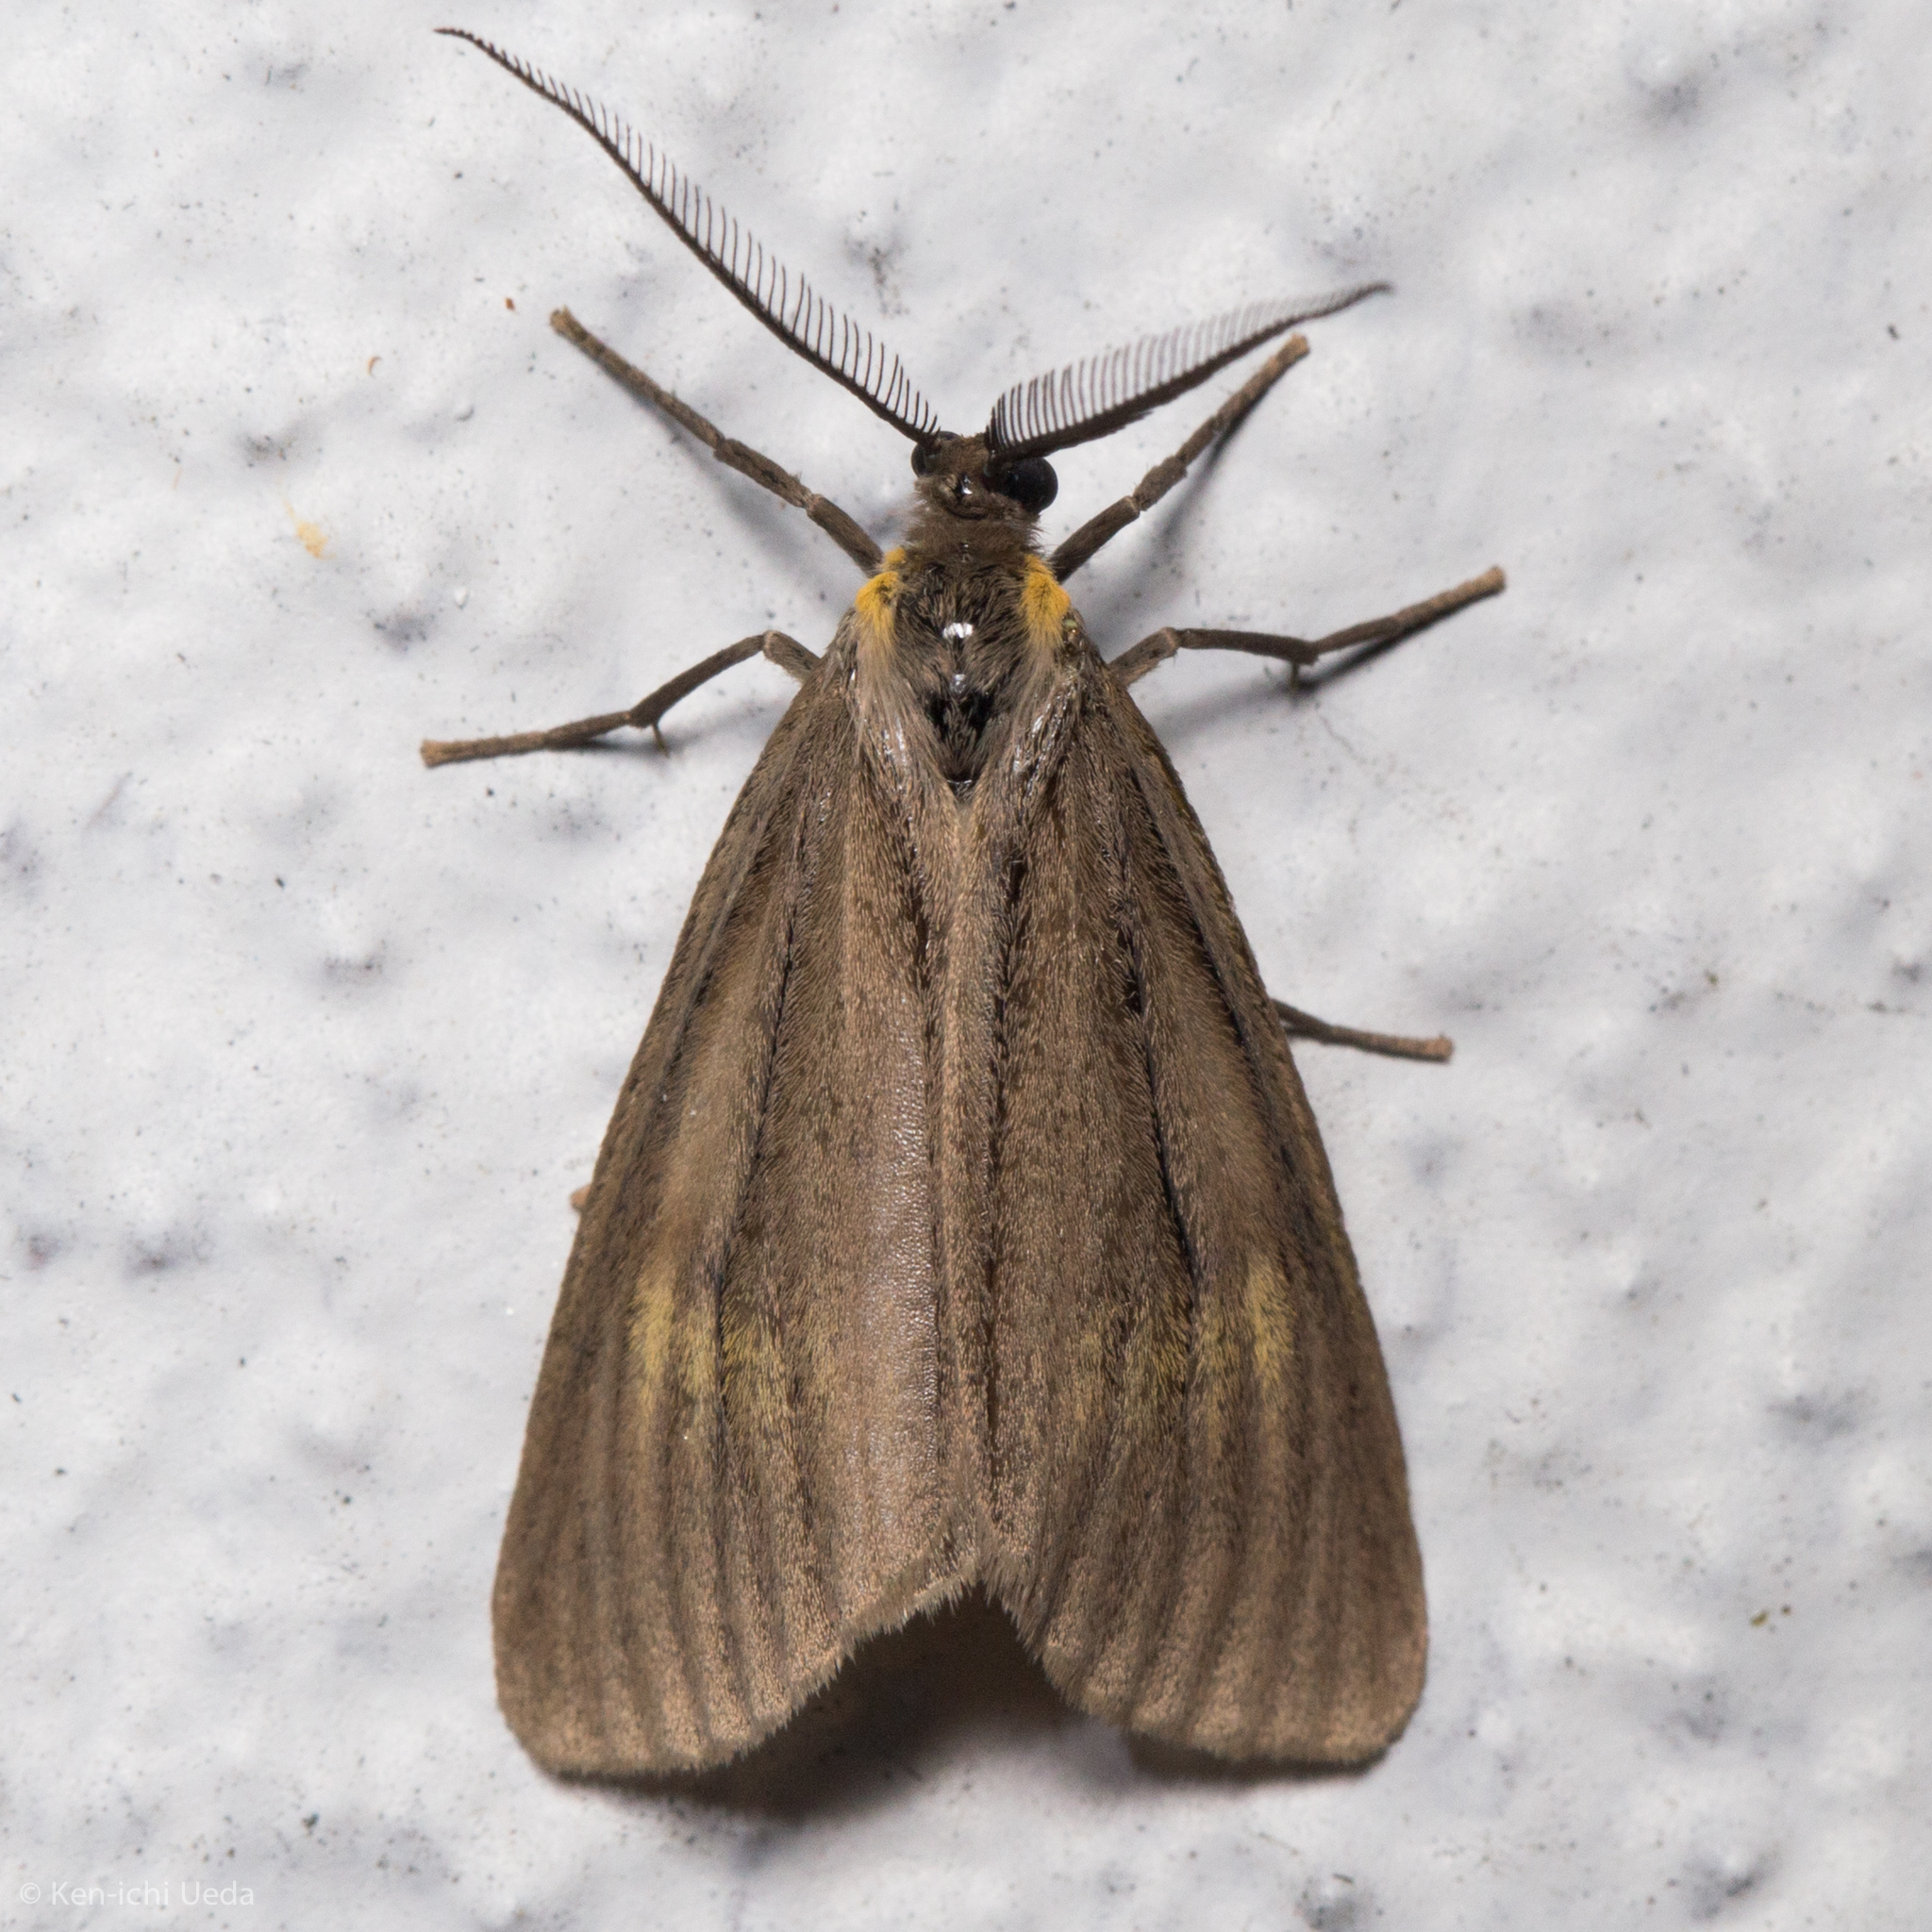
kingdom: Animalia
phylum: Arthropoda
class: Insecta
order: Lepidoptera
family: Notodontidae
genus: Phryganidia
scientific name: Phryganidia californica
